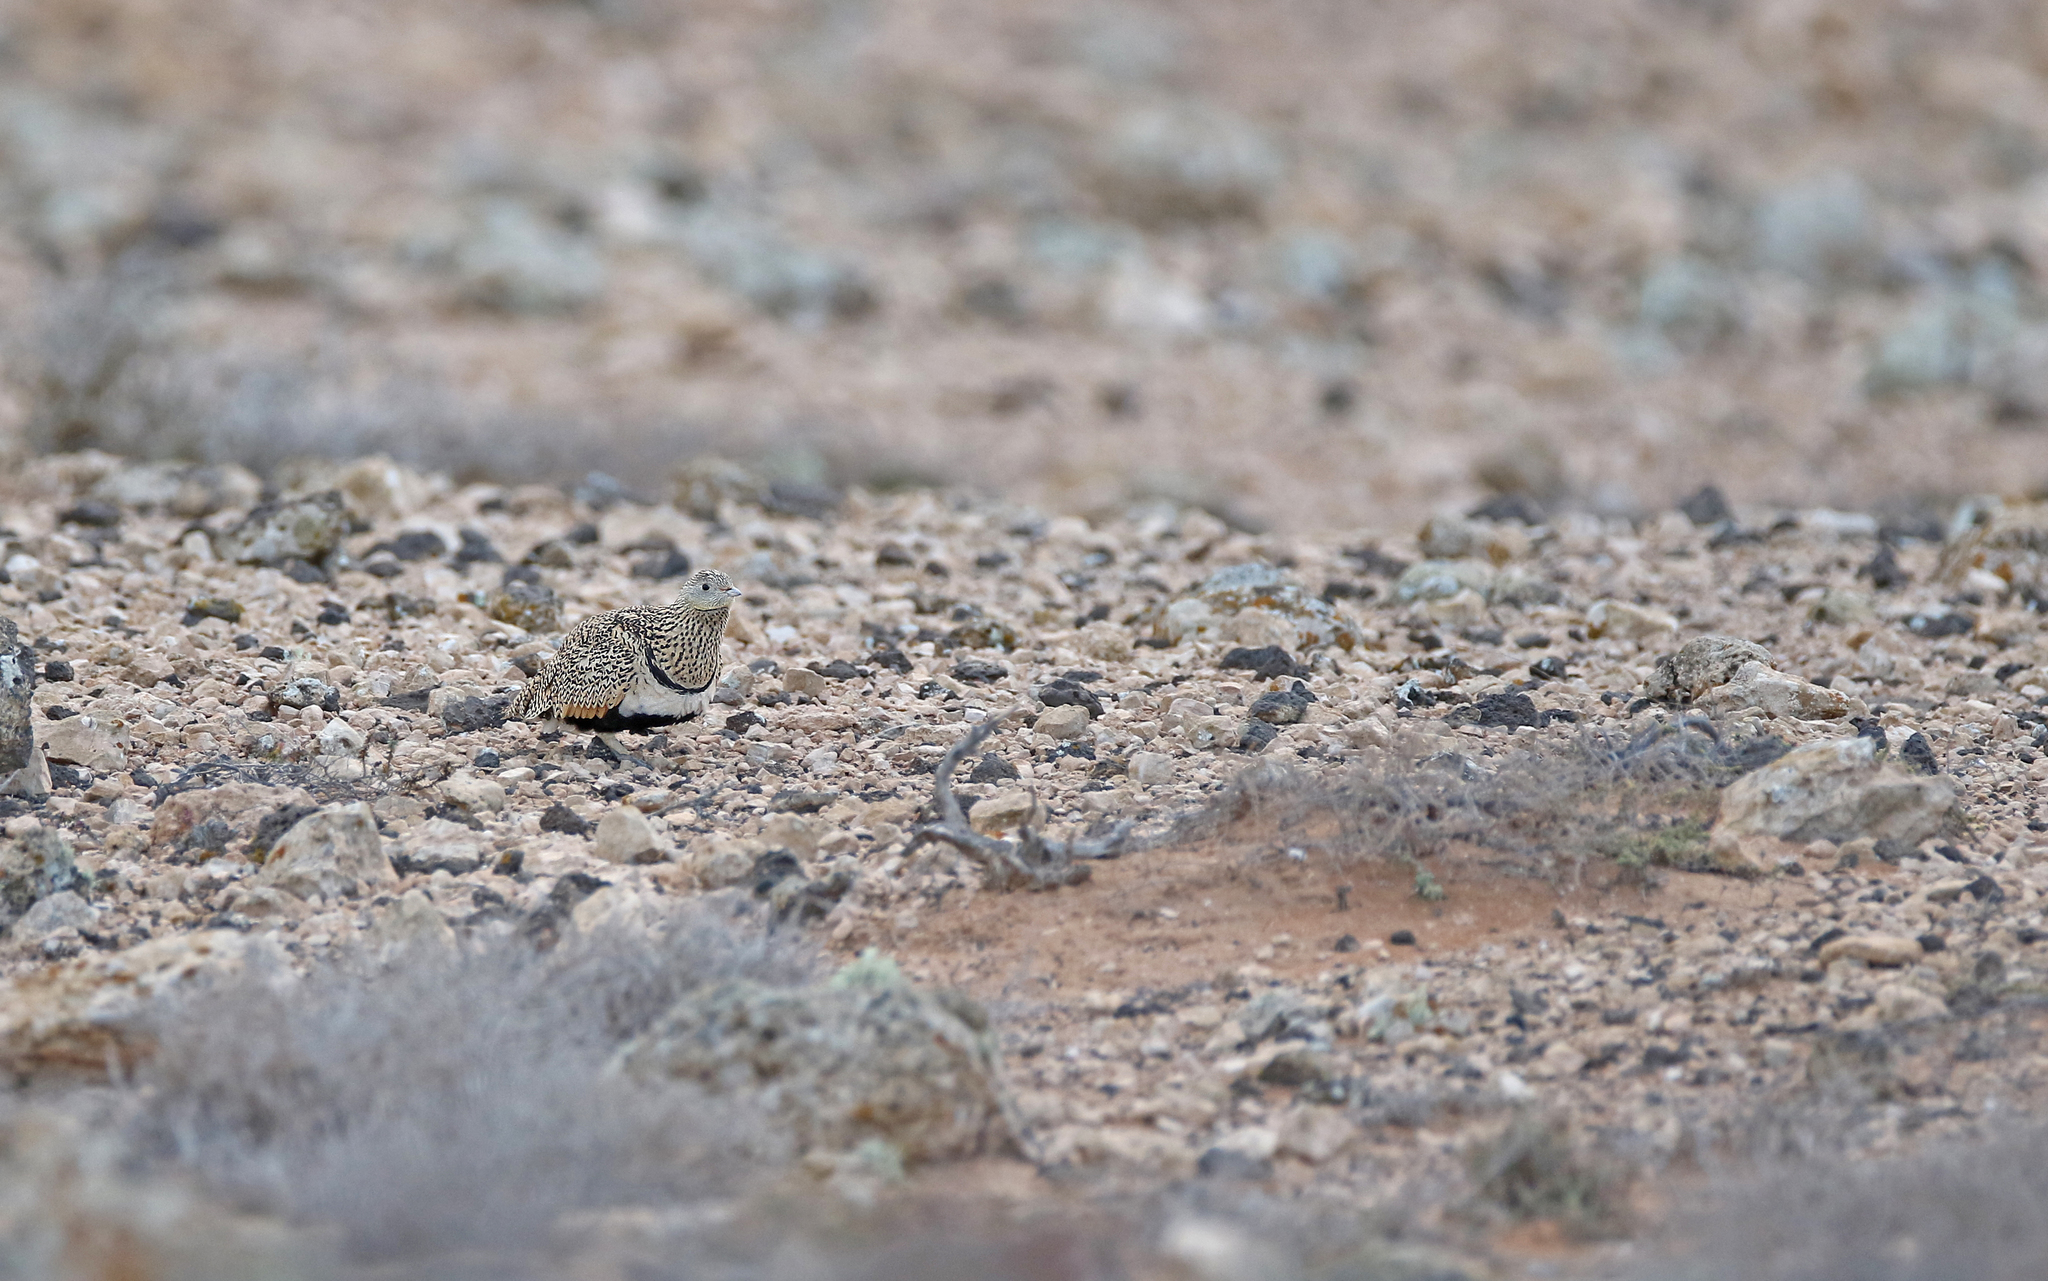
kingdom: Animalia
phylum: Chordata
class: Aves
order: Pteroclidiformes
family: Pteroclididae
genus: Pterocles
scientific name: Pterocles orientalis
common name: Black-bellied sandgrouse
